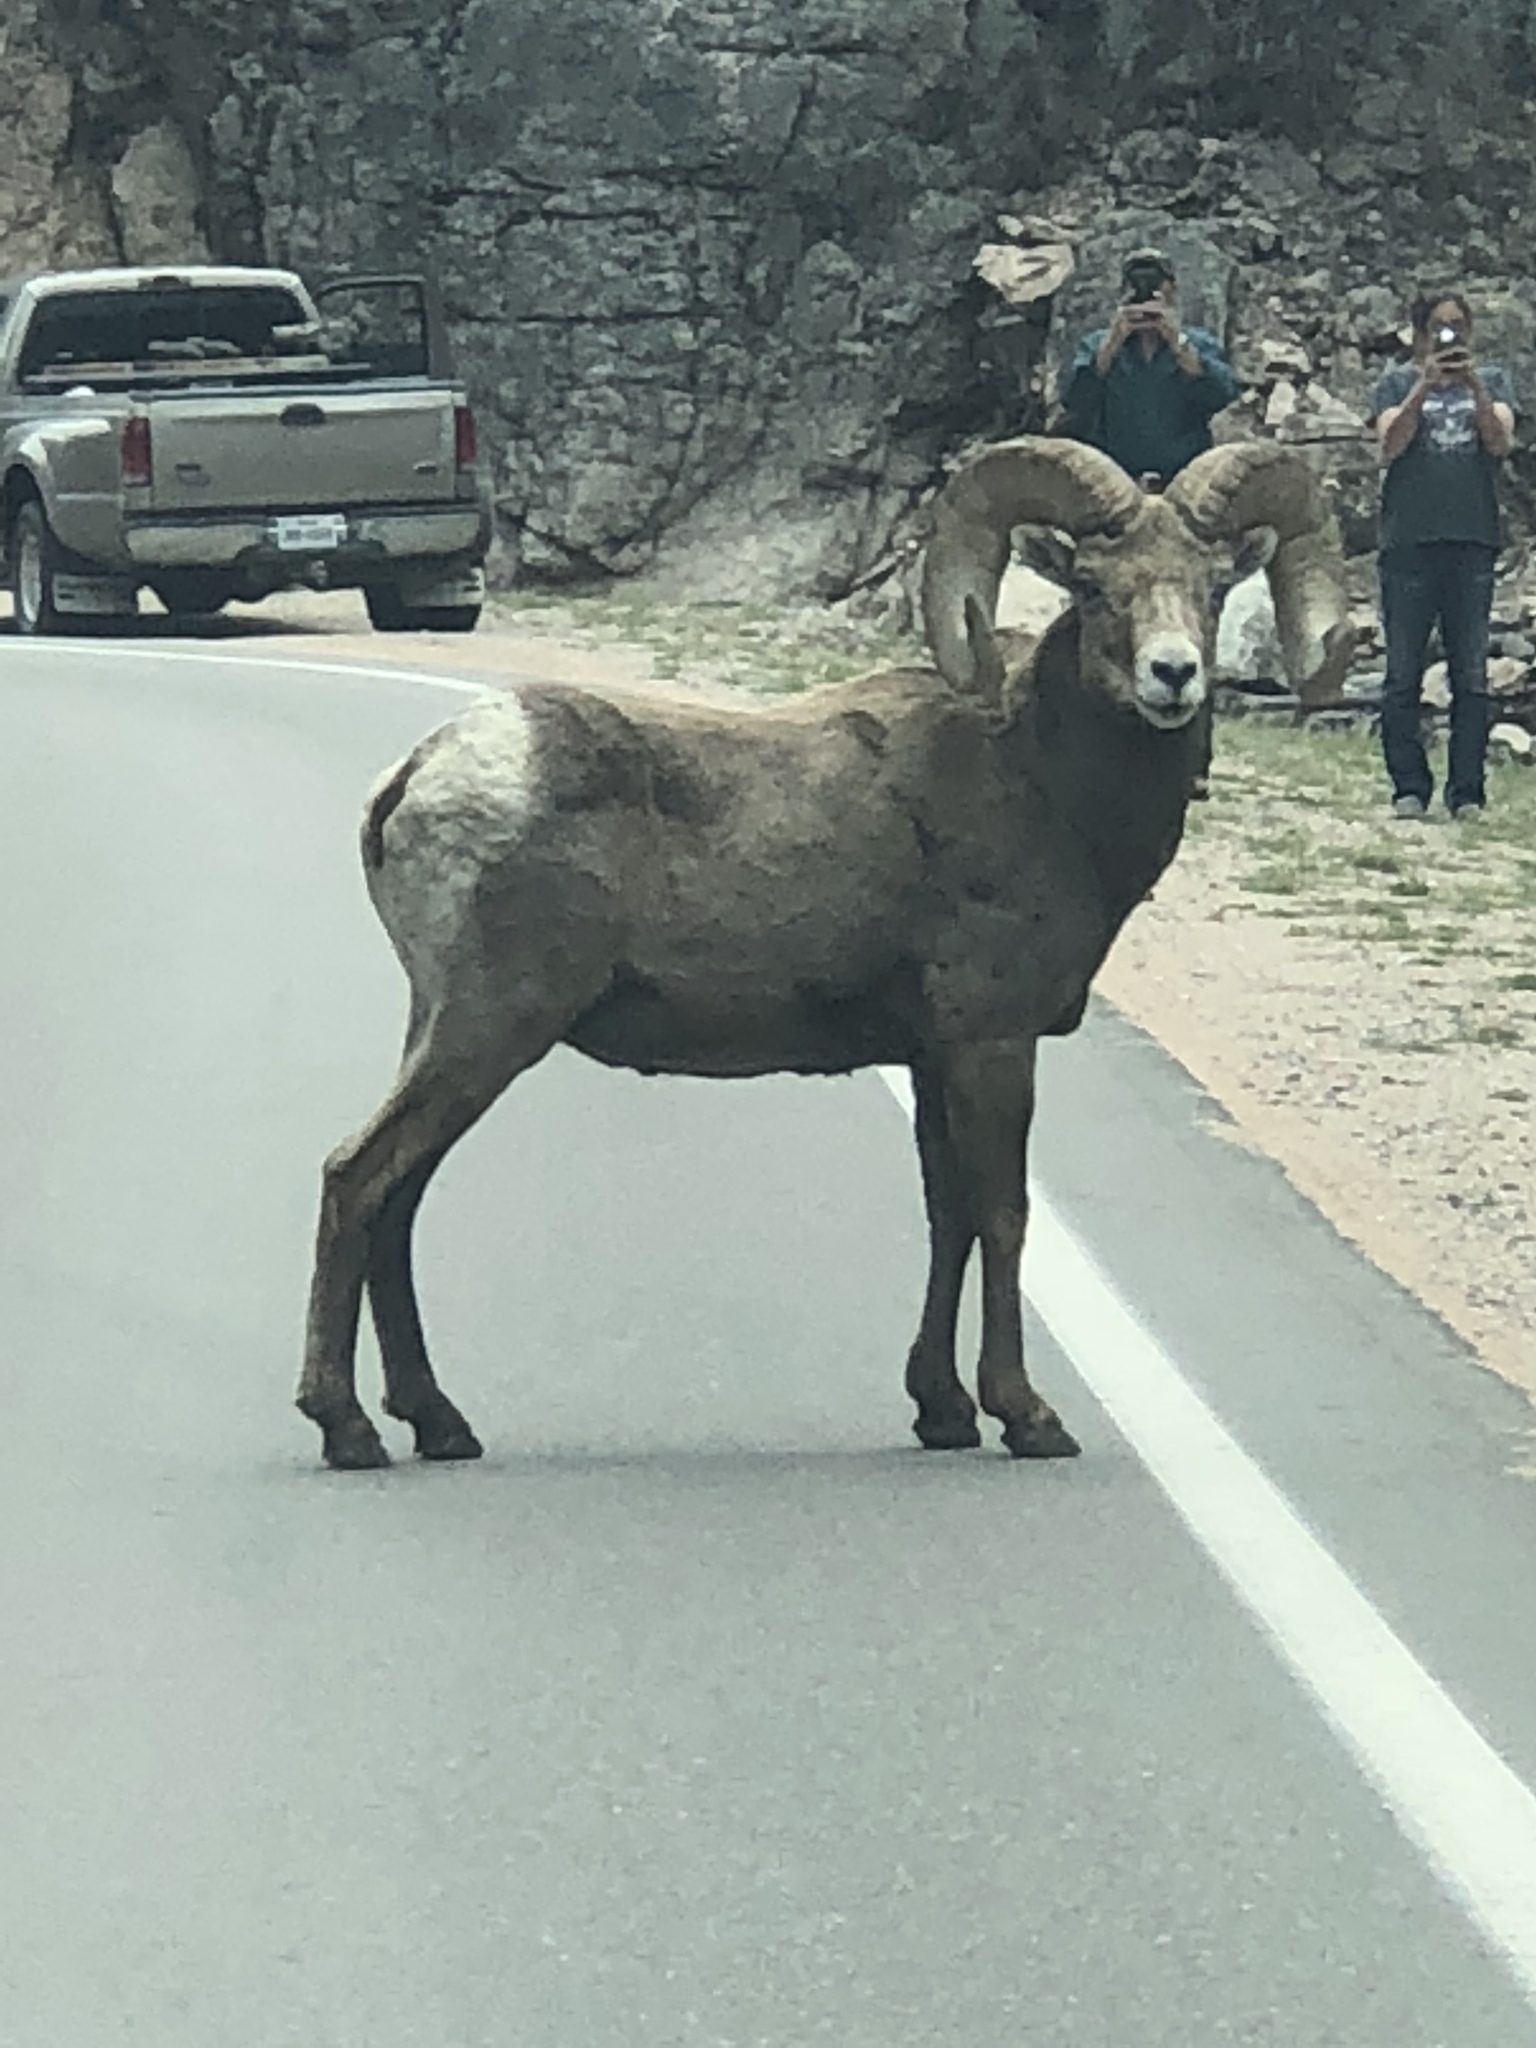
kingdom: Animalia
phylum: Chordata
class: Mammalia
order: Artiodactyla
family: Bovidae
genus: Ovis
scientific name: Ovis canadensis
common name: Bighorn sheep
